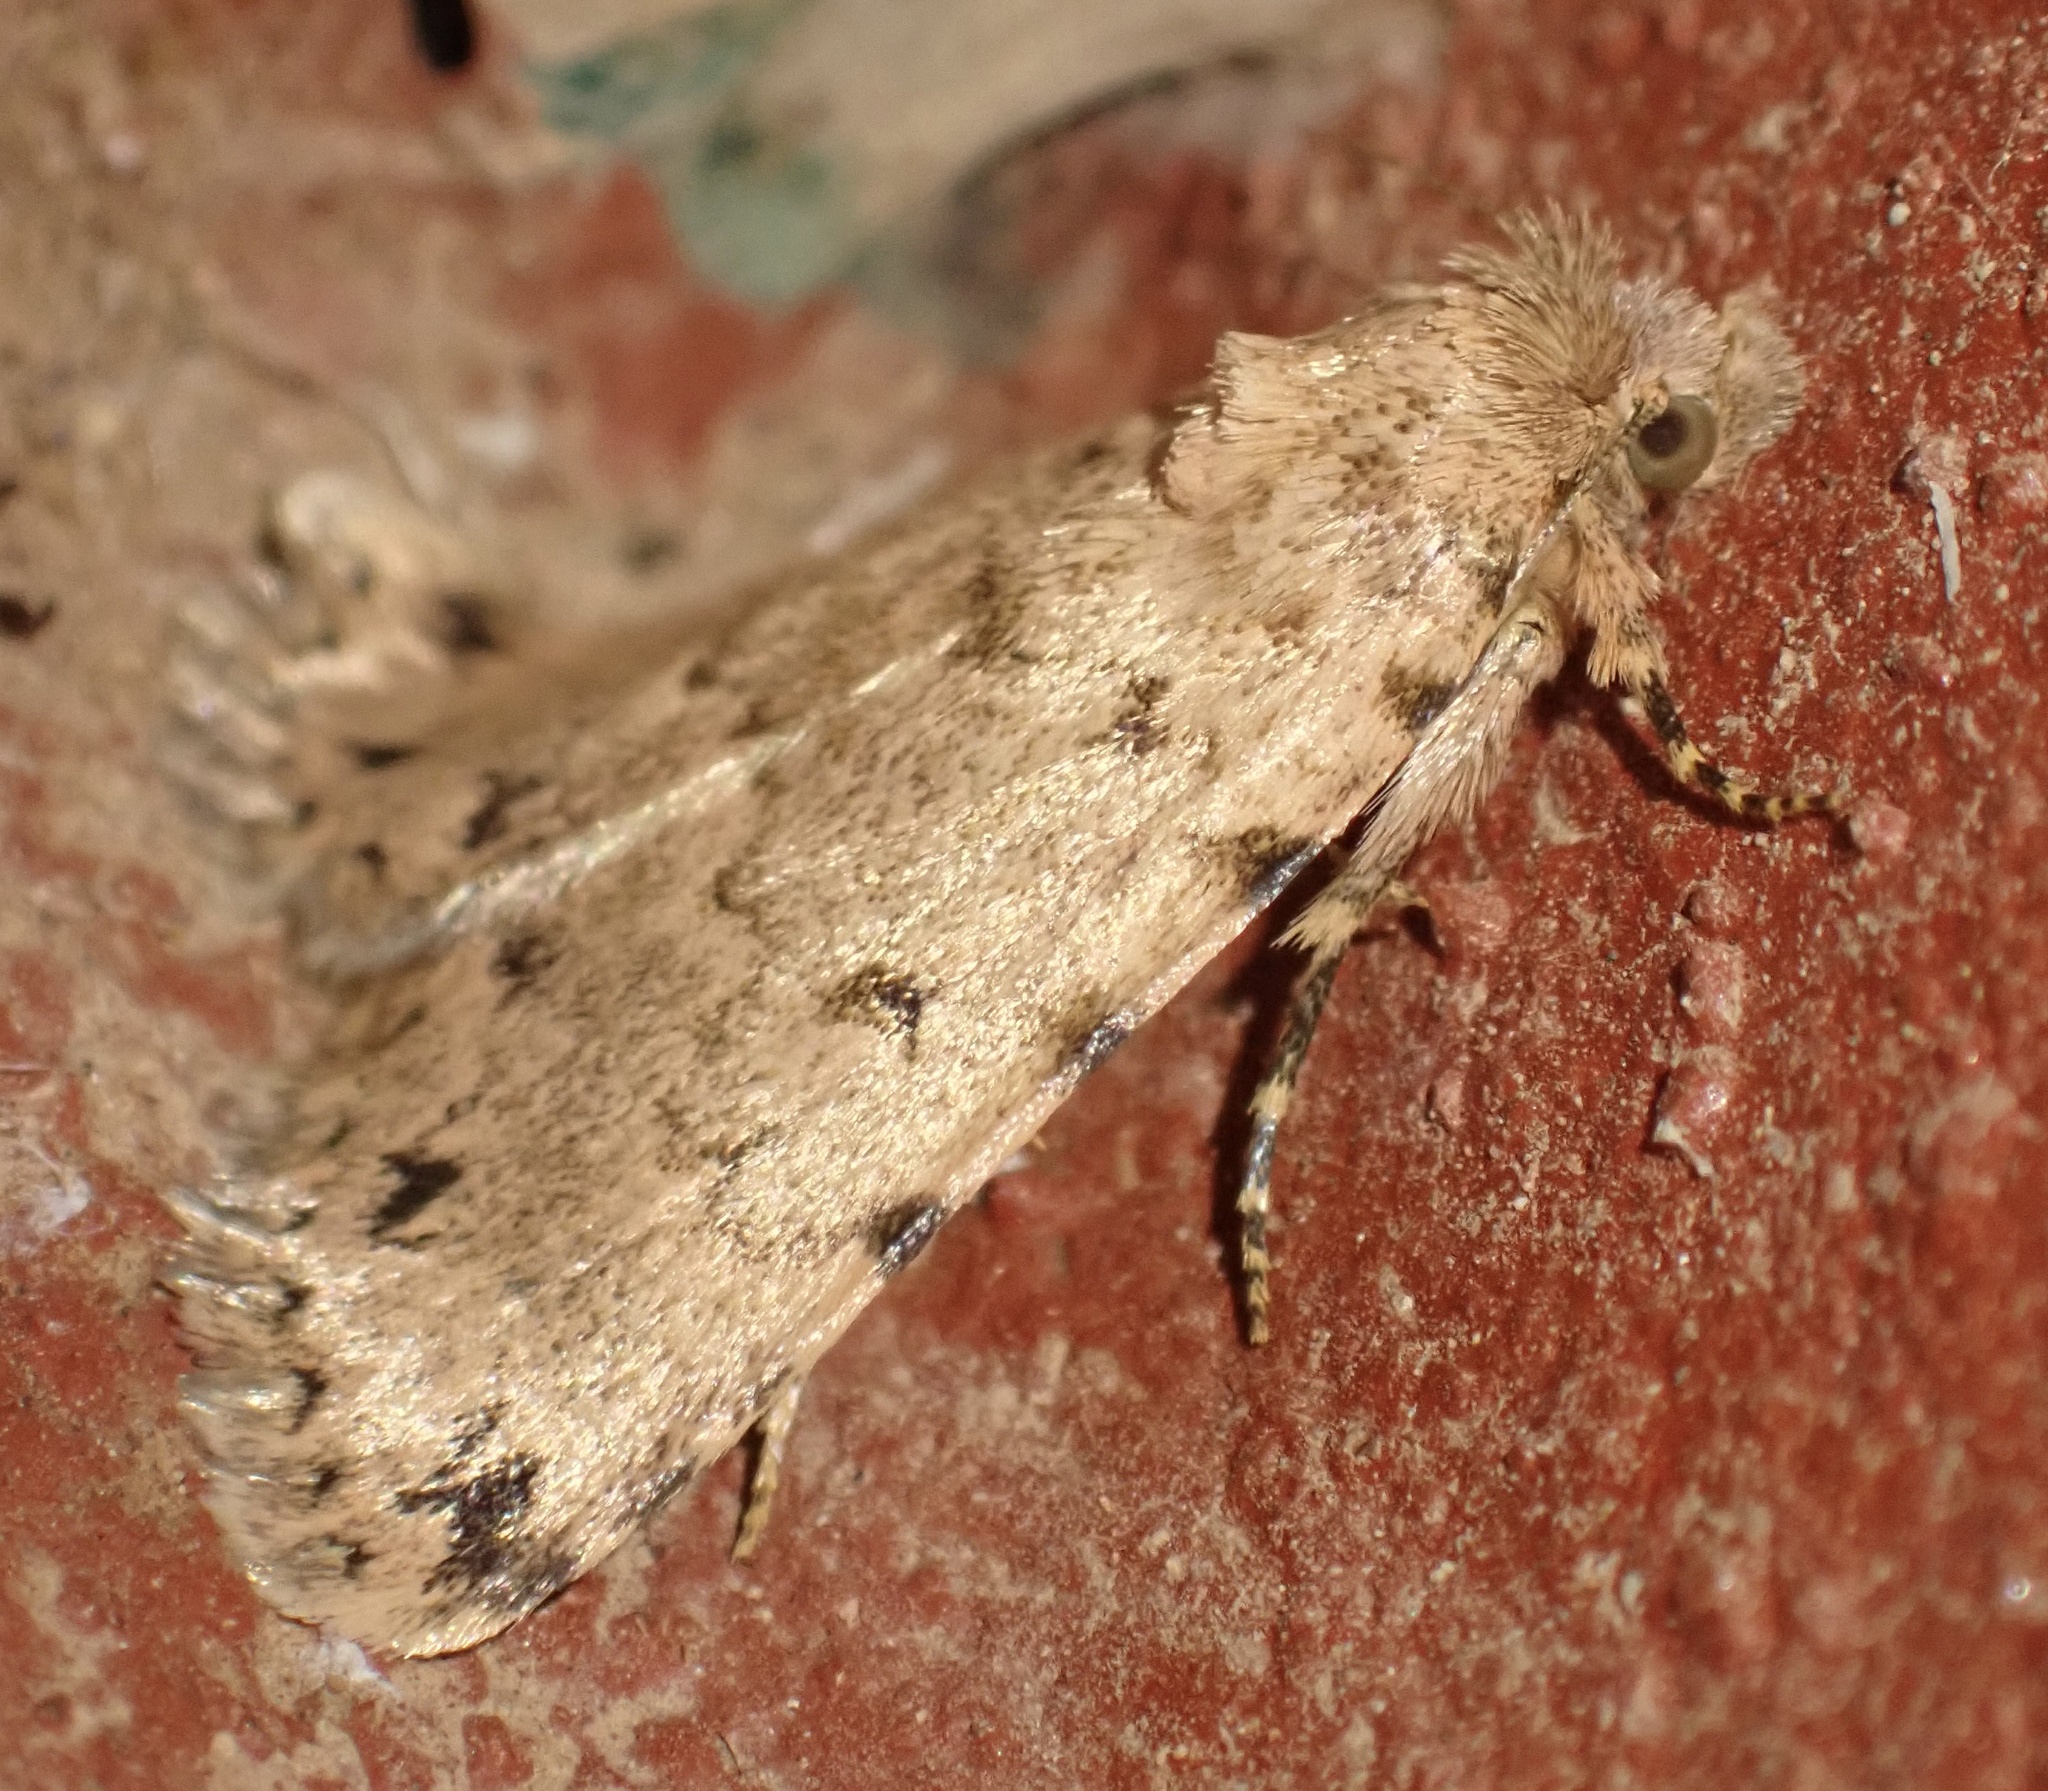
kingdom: Animalia
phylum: Arthropoda
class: Insecta
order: Lepidoptera
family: Erebidae
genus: Autophila
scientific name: Autophila maura
